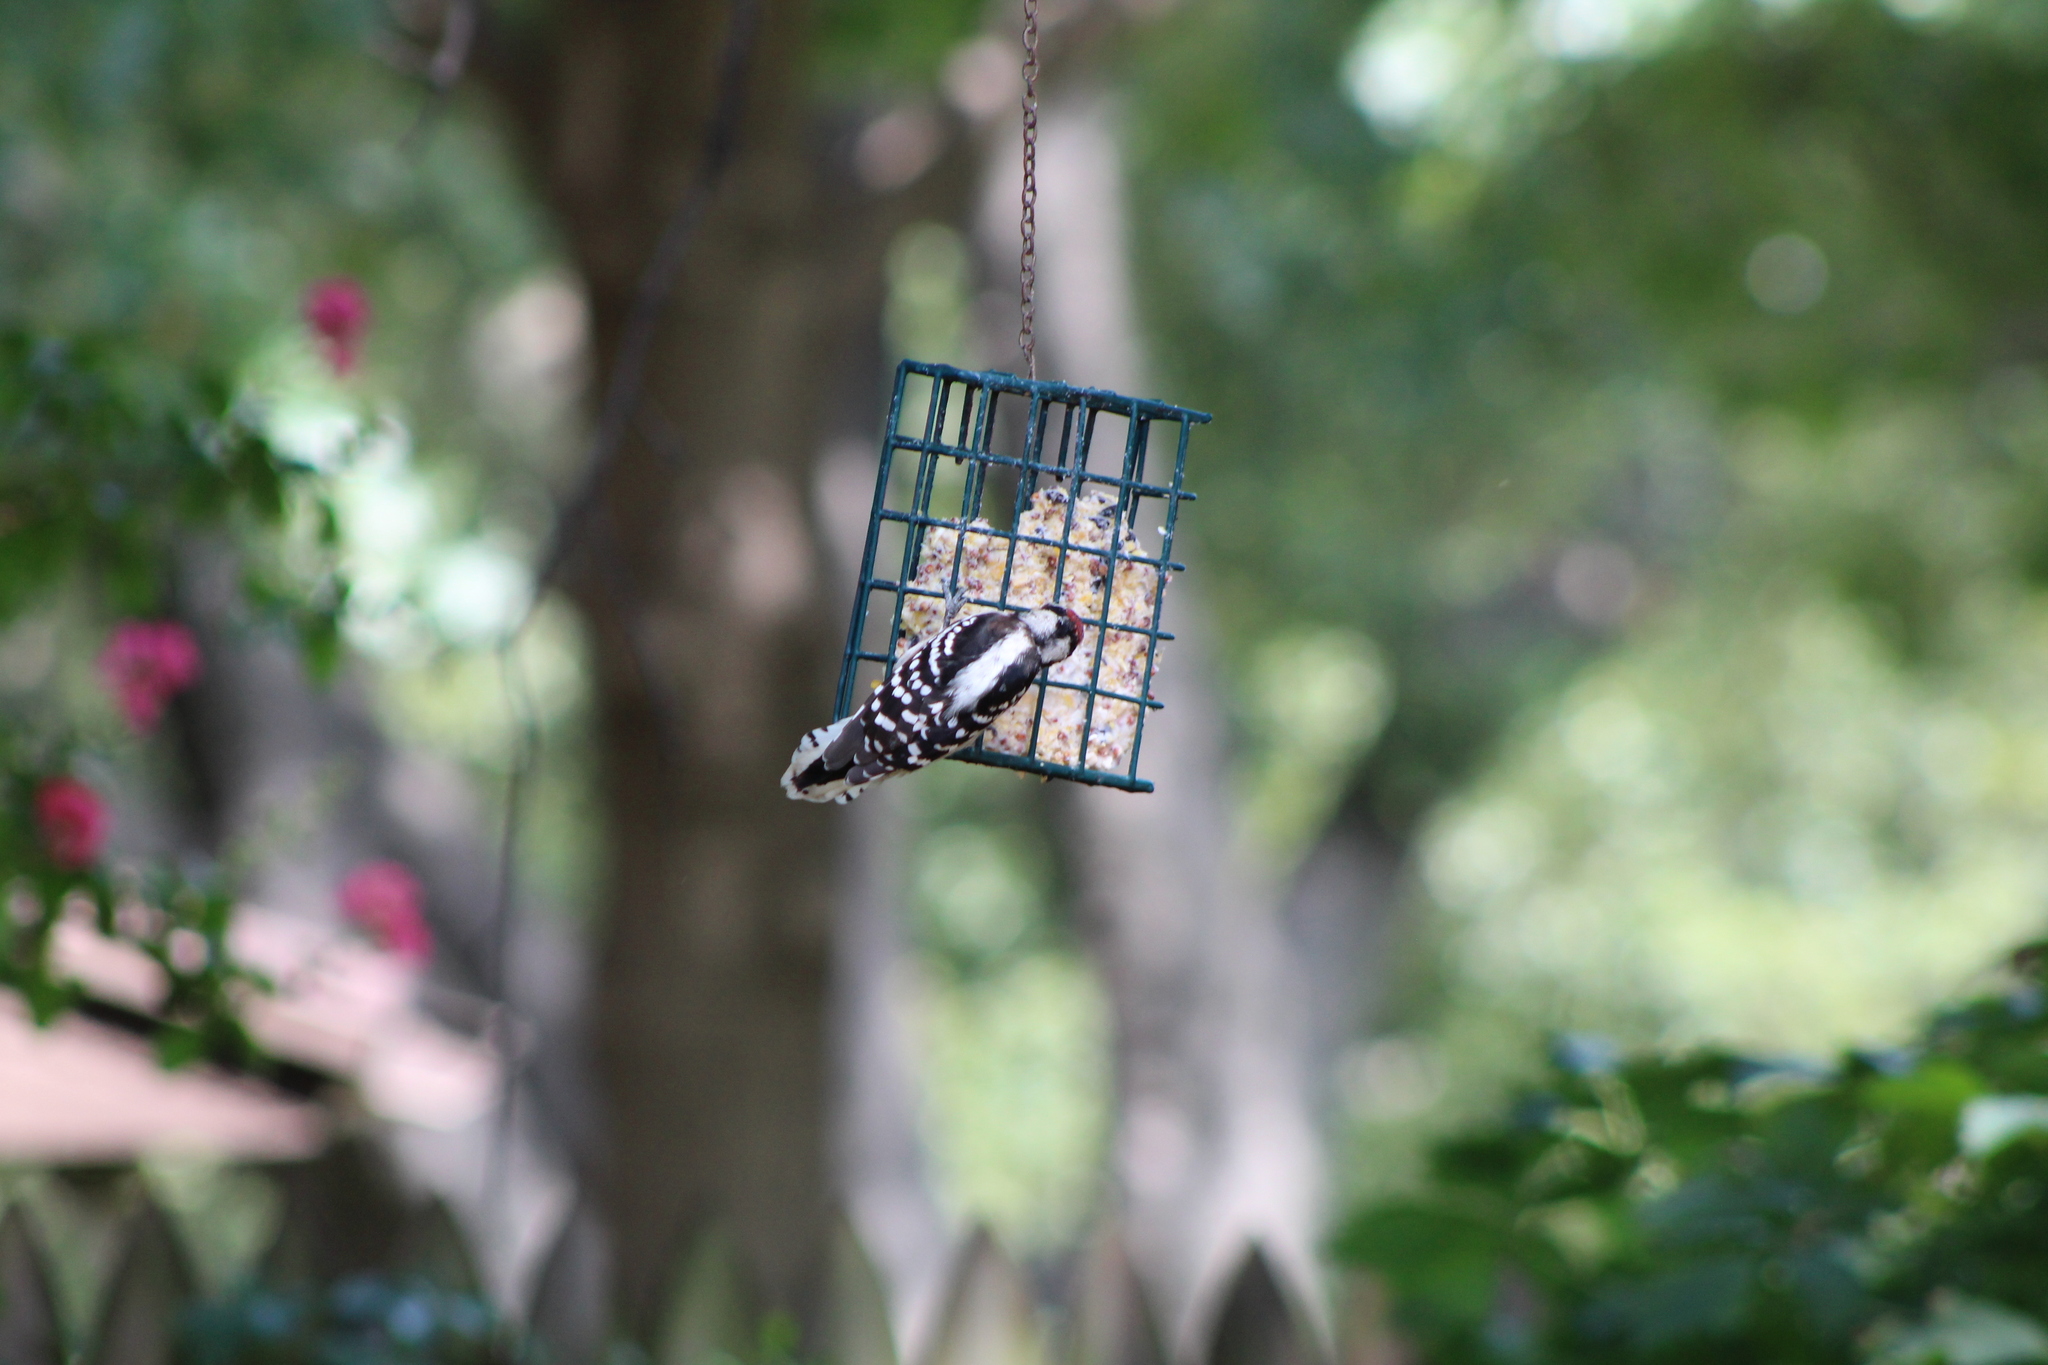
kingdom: Animalia
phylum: Chordata
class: Aves
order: Piciformes
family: Picidae
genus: Dryobates
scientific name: Dryobates pubescens
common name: Downy woodpecker
